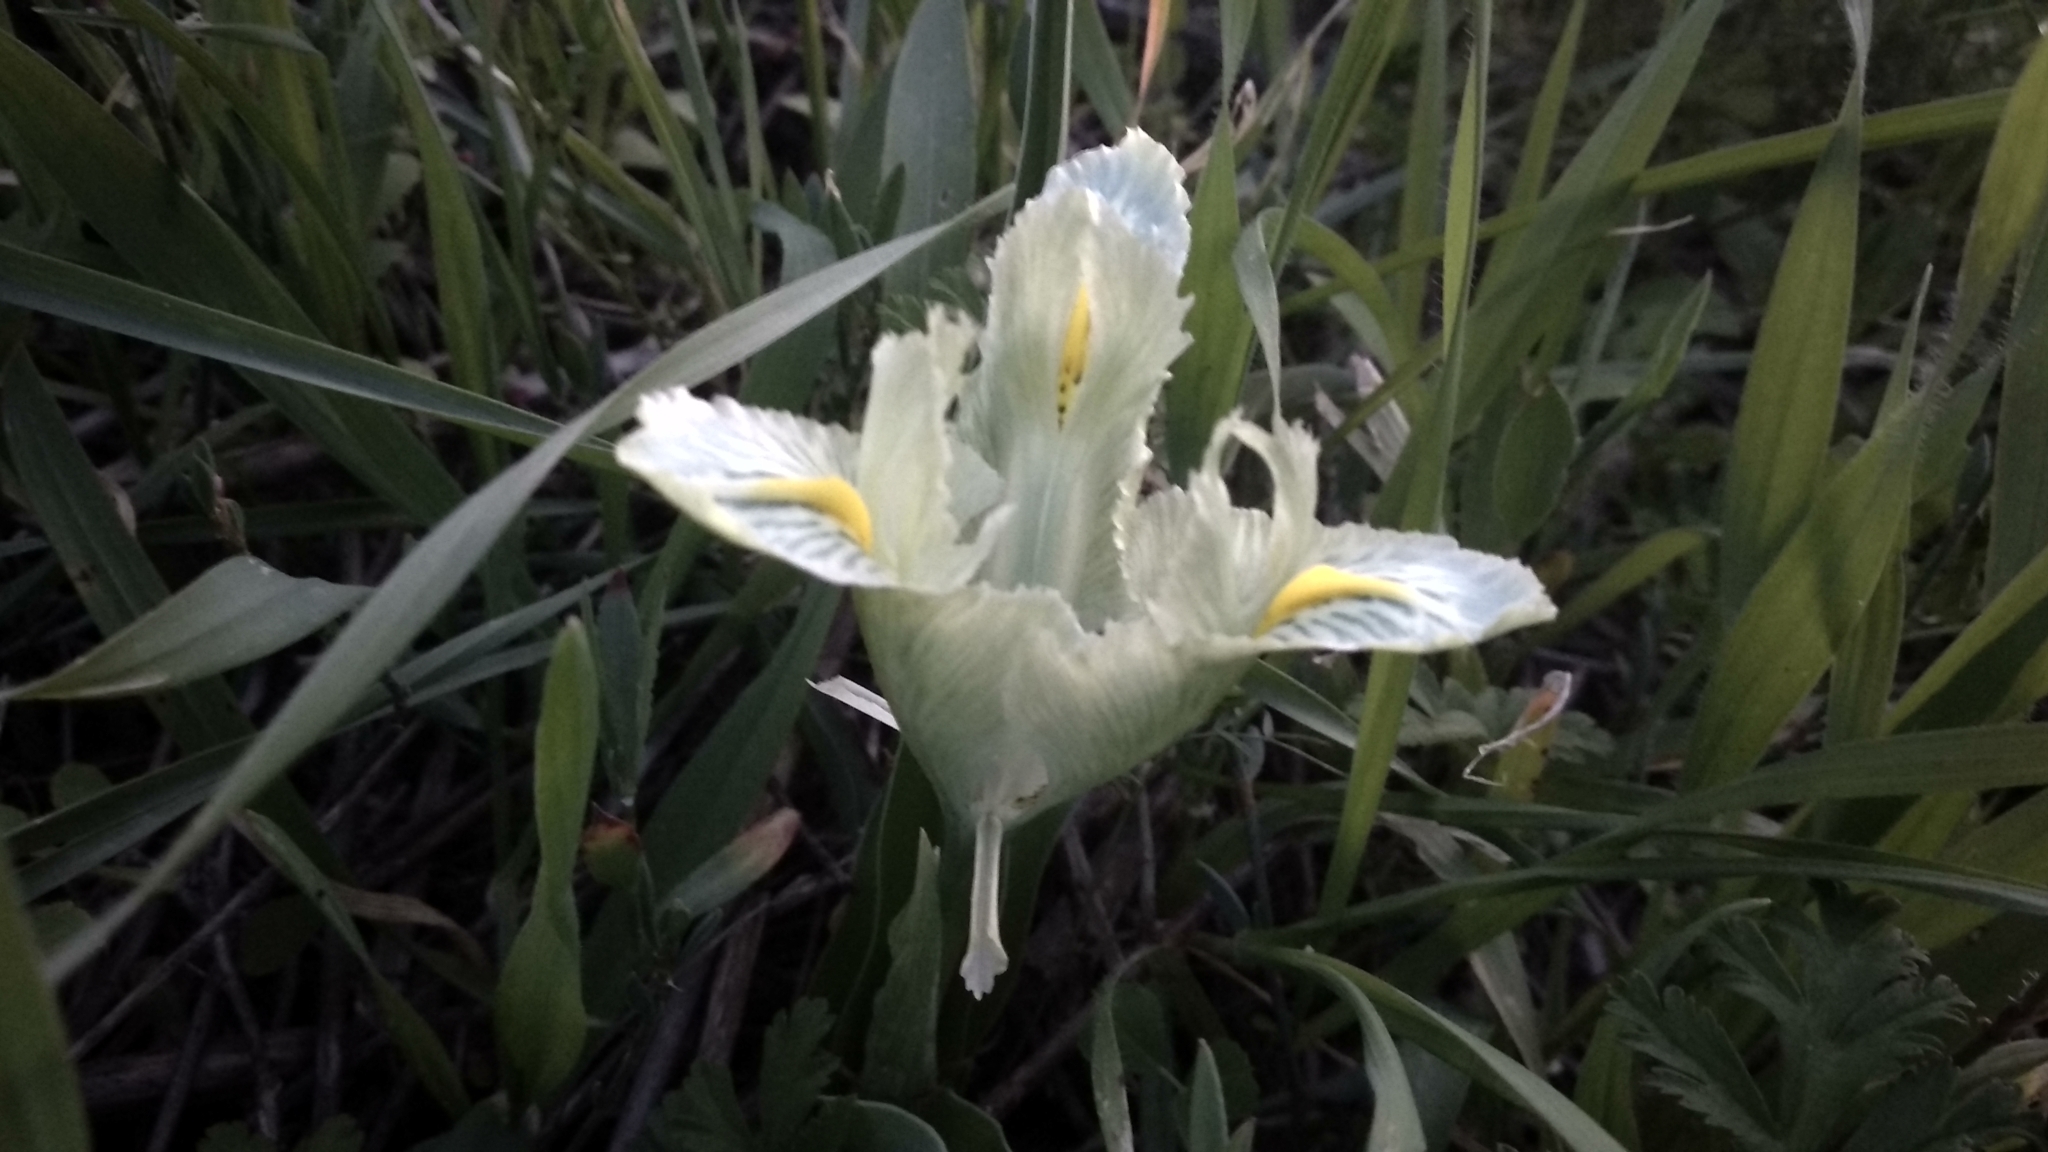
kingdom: Plantae
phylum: Tracheophyta
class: Liliopsida
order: Asparagales
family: Iridaceae
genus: Iris
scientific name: Iris palaestina
